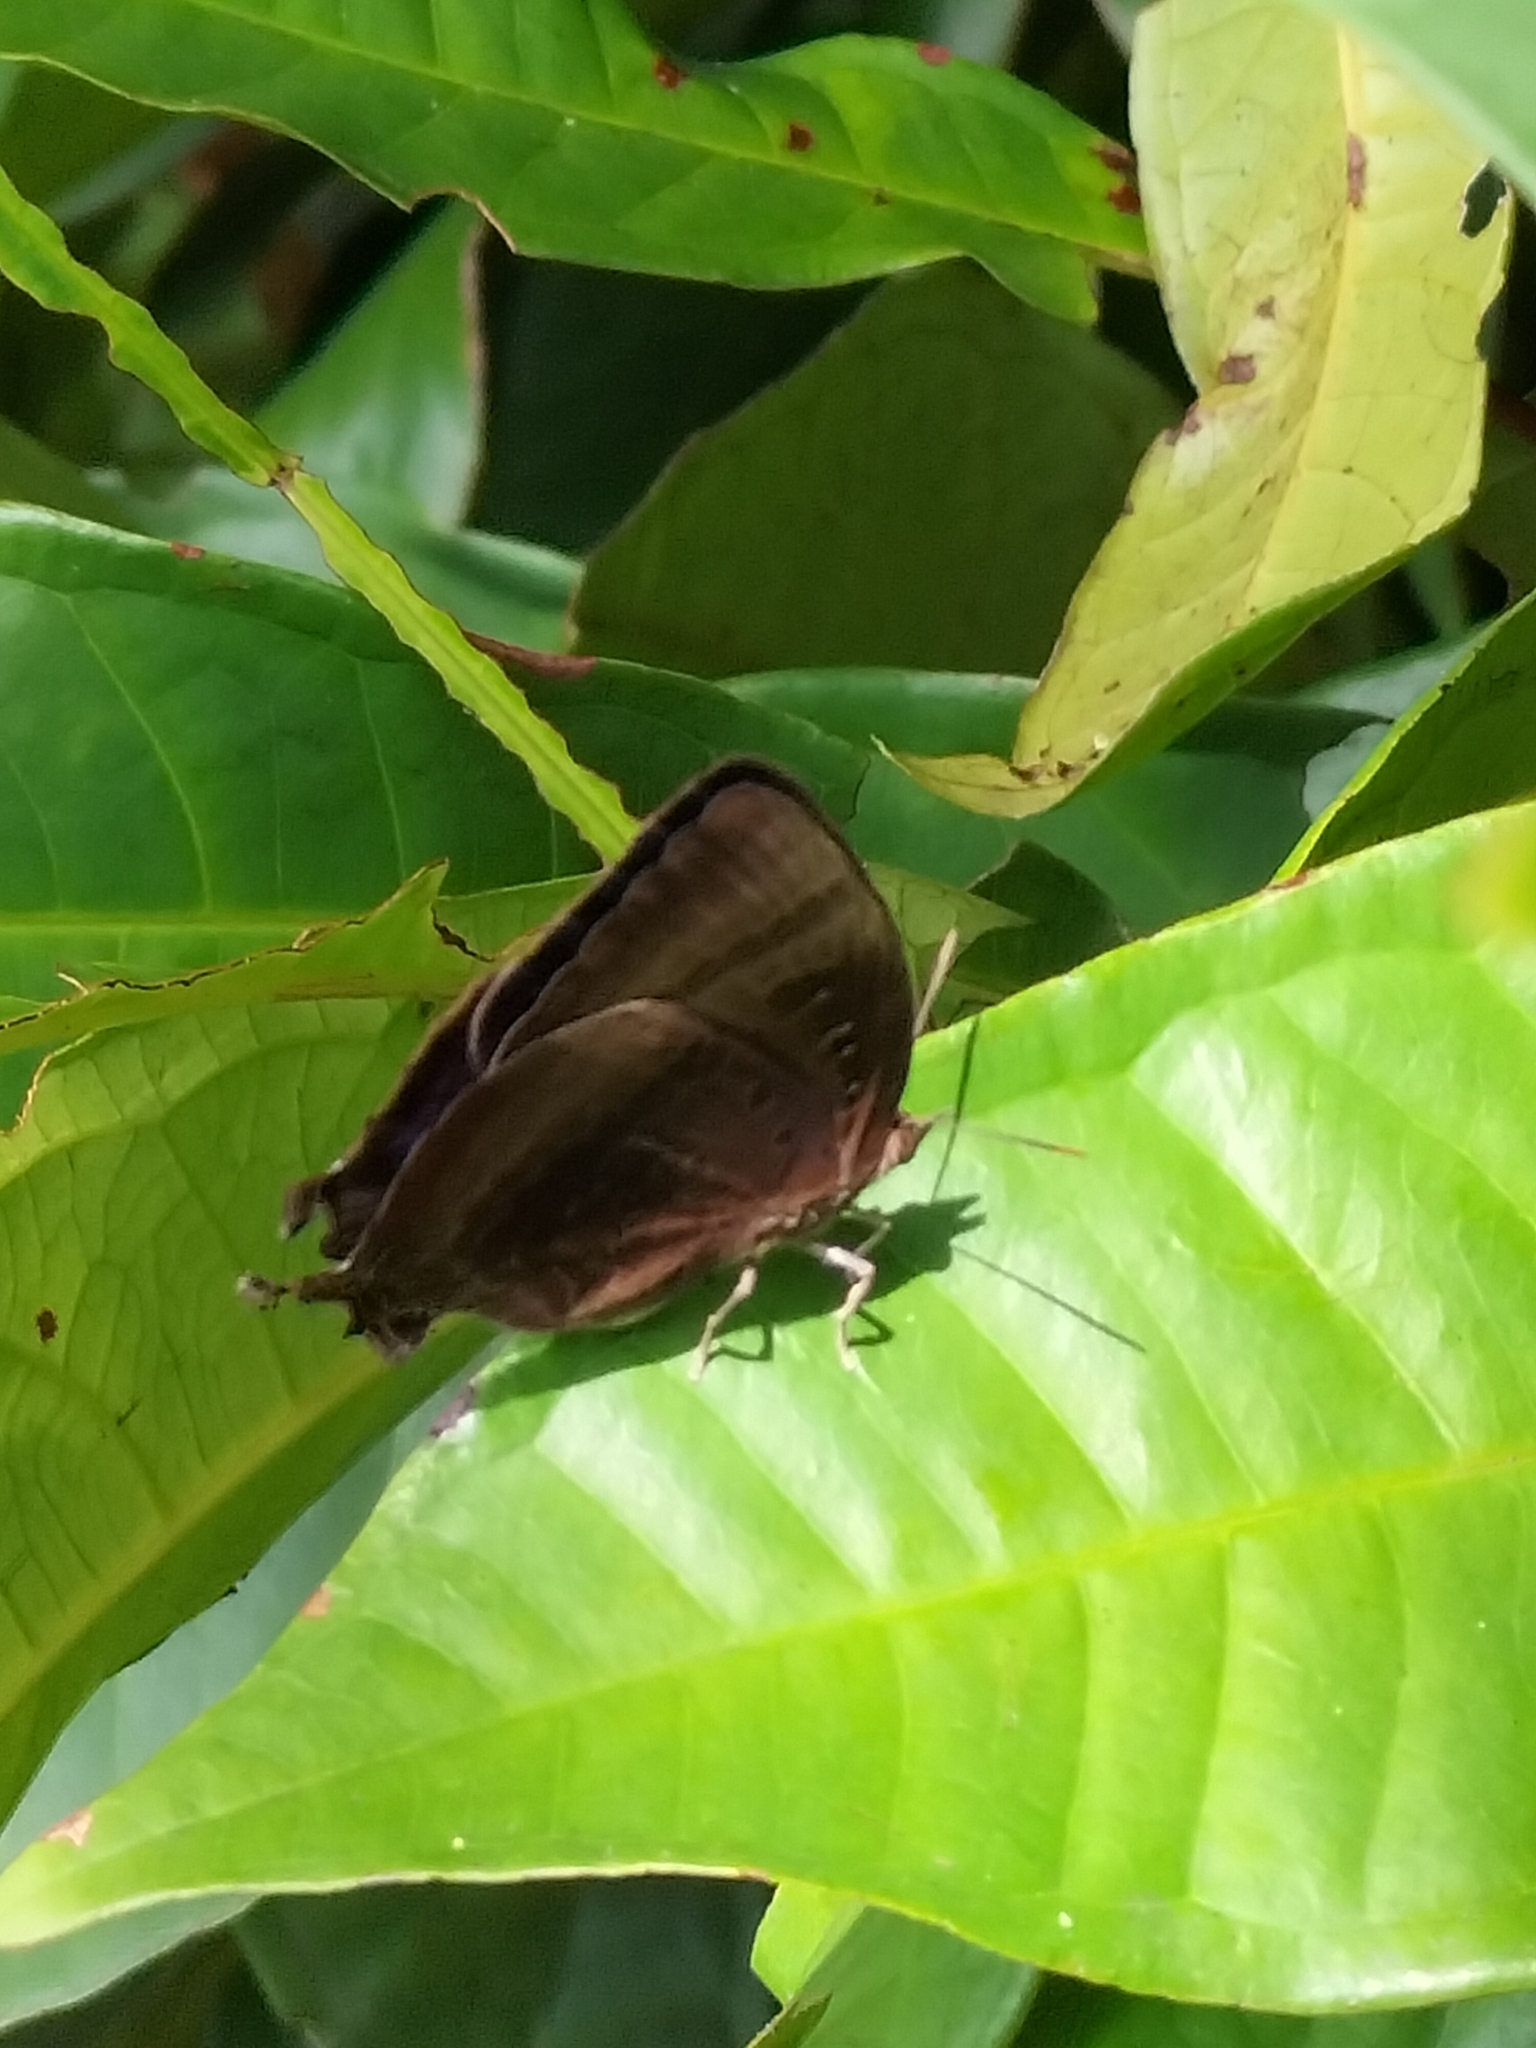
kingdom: Animalia
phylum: Arthropoda
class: Insecta
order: Lepidoptera
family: Lycaenidae
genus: Arhopala
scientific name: Arhopala madytus
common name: Bright oak-blue
